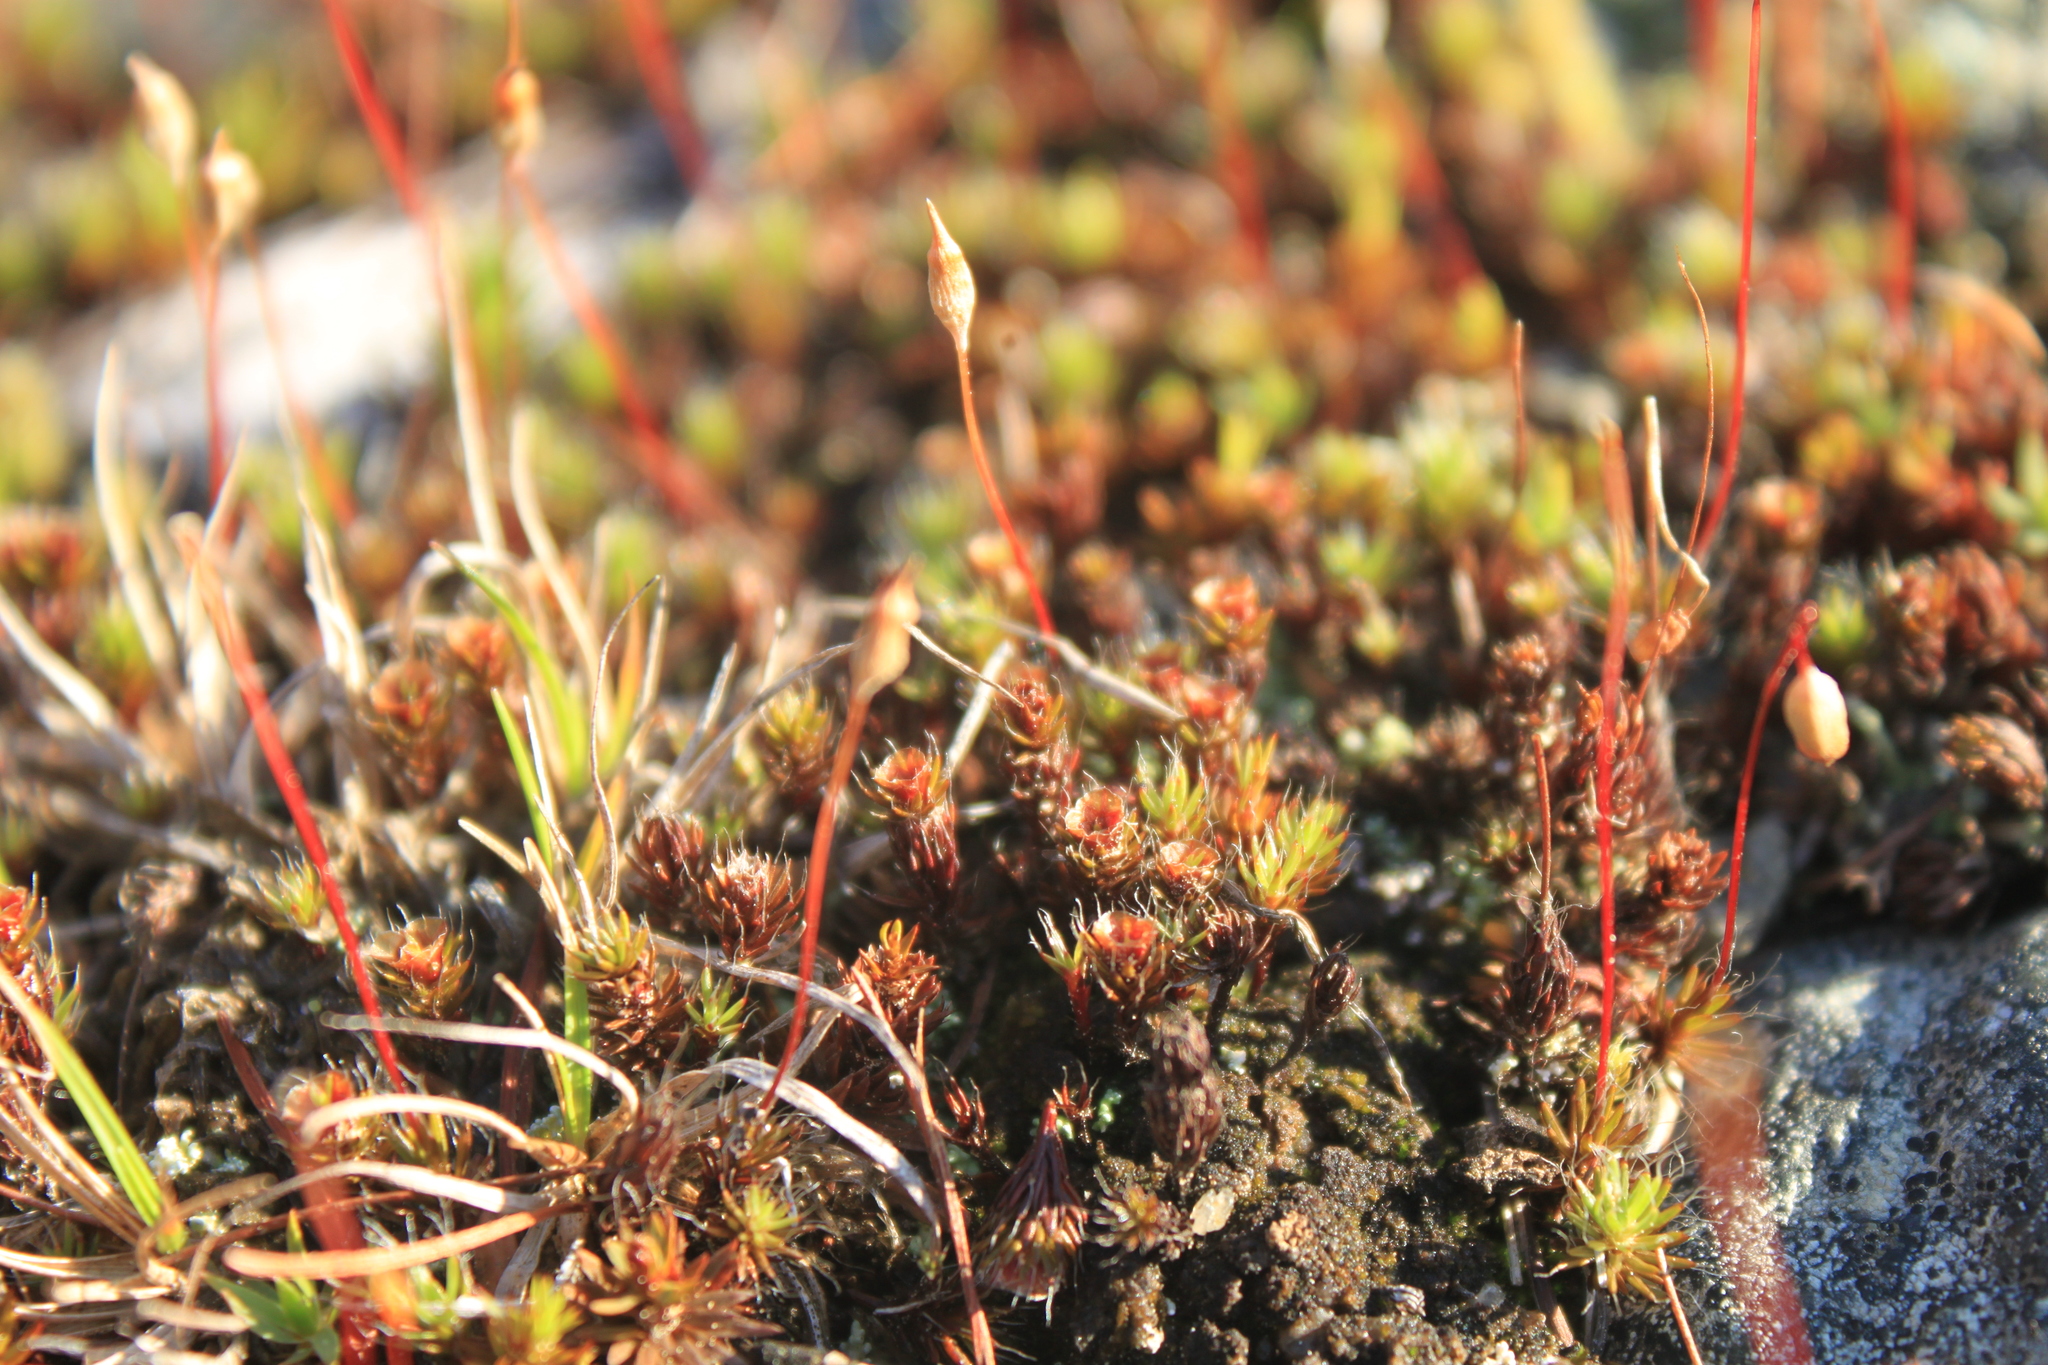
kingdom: Plantae
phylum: Bryophyta
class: Polytrichopsida
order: Polytrichales
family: Polytrichaceae
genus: Polytrichum
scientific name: Polytrichum piliferum
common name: Bristly haircap
